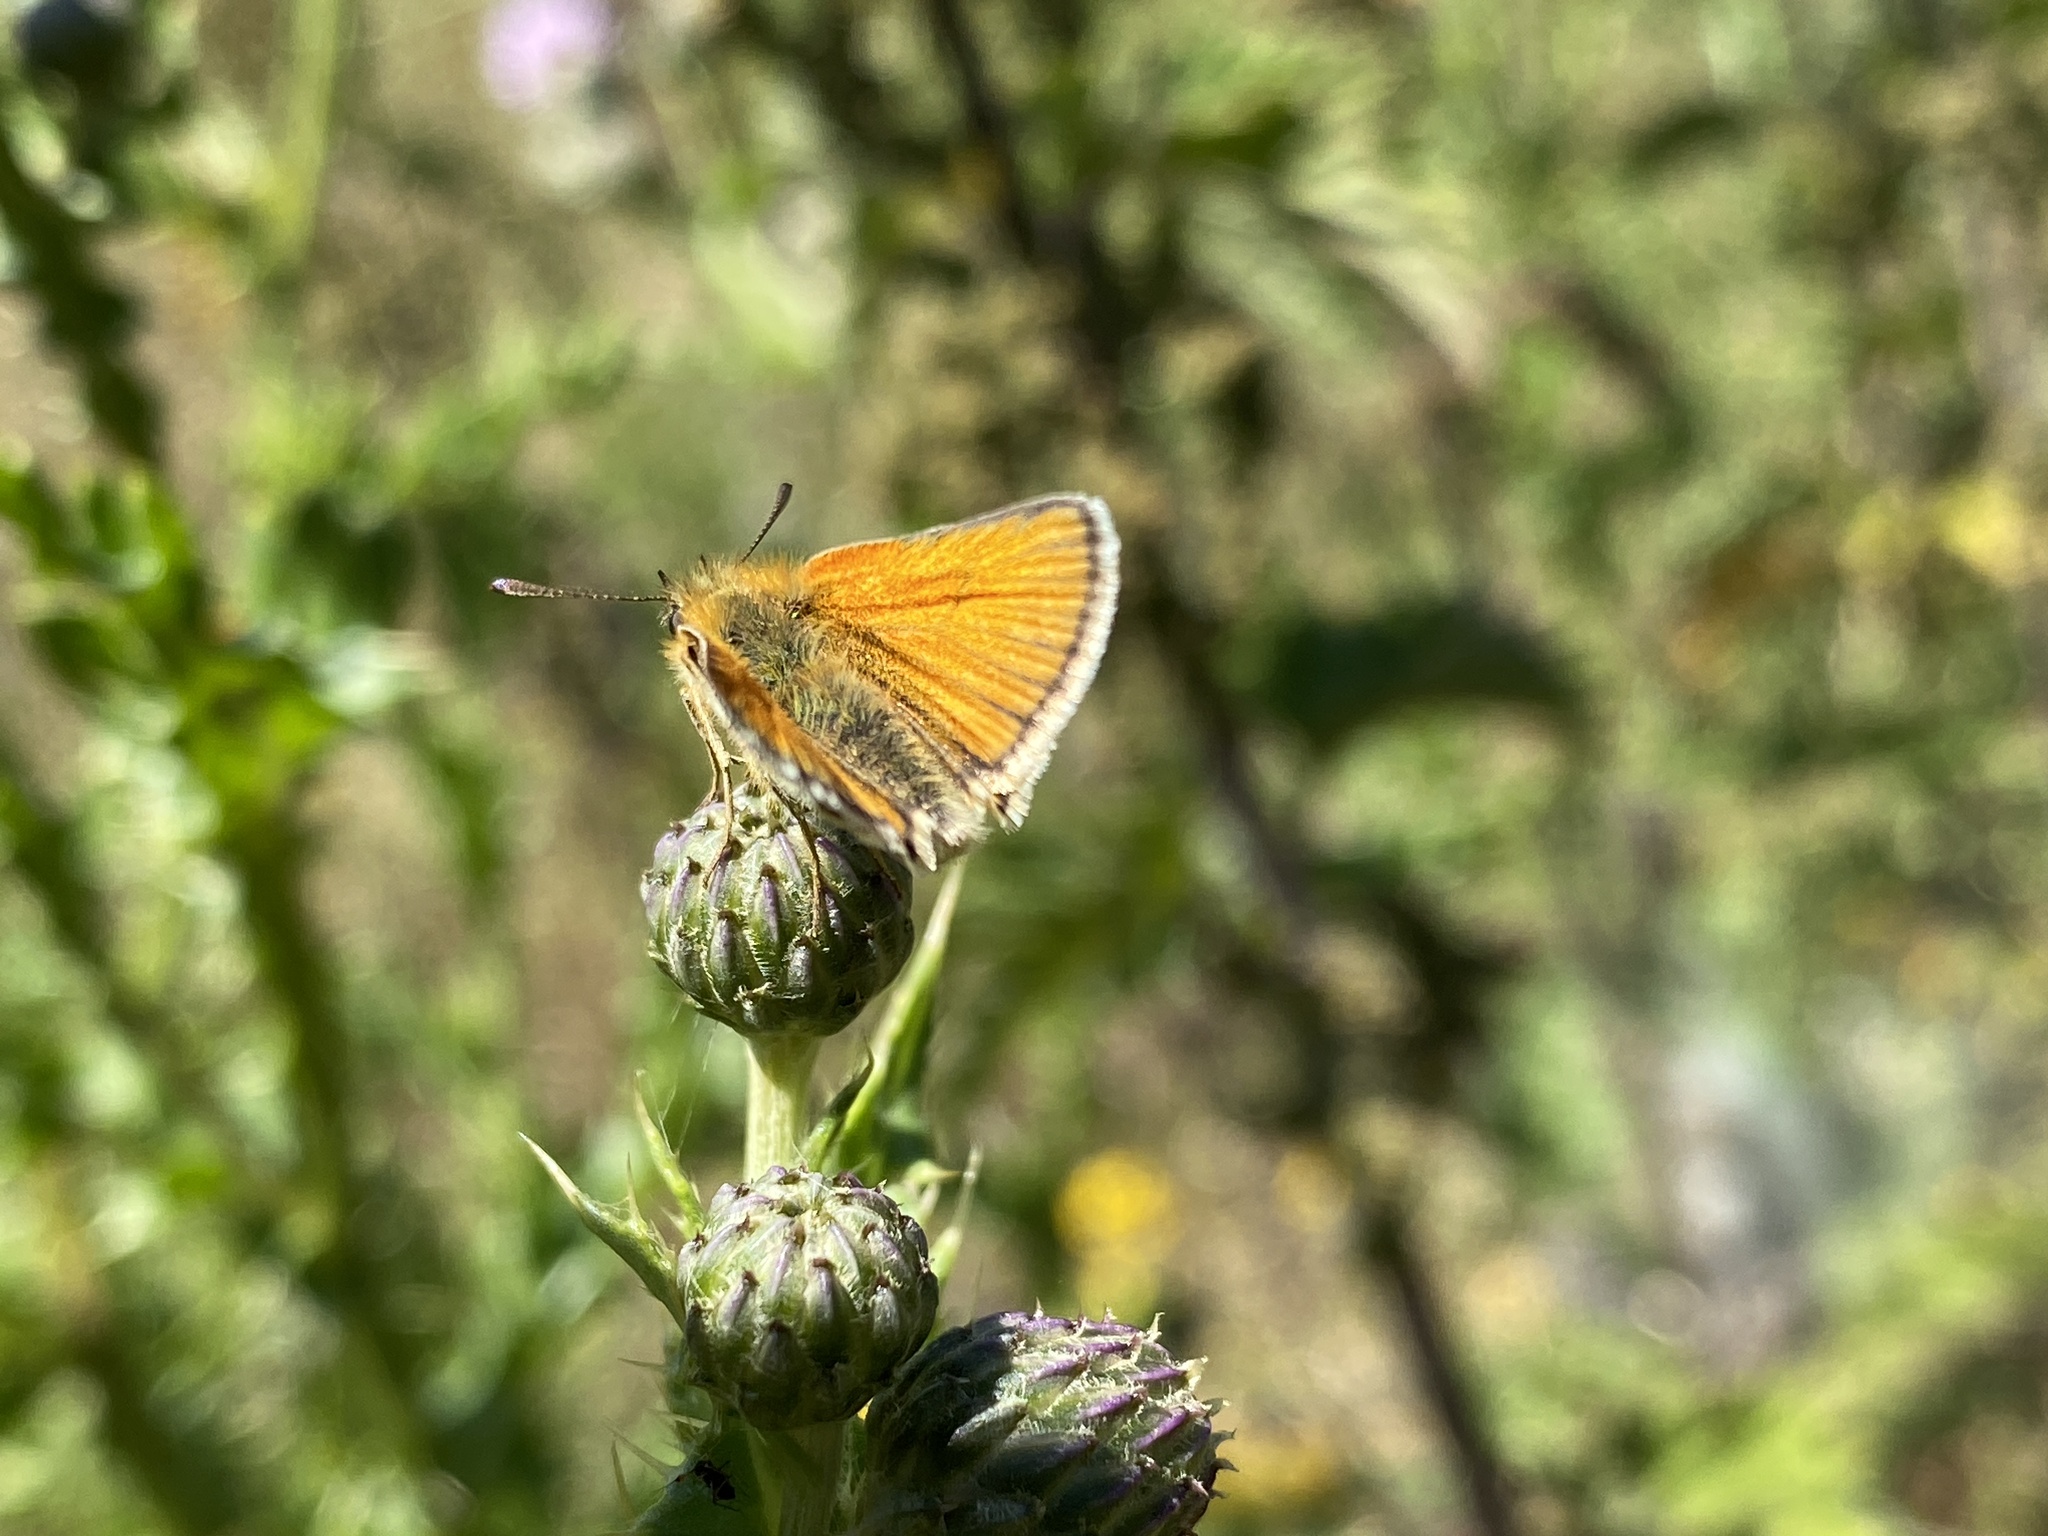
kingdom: Animalia
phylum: Arthropoda
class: Insecta
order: Lepidoptera
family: Hesperiidae
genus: Thymelicus
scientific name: Thymelicus lineola
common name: Essex skipper
